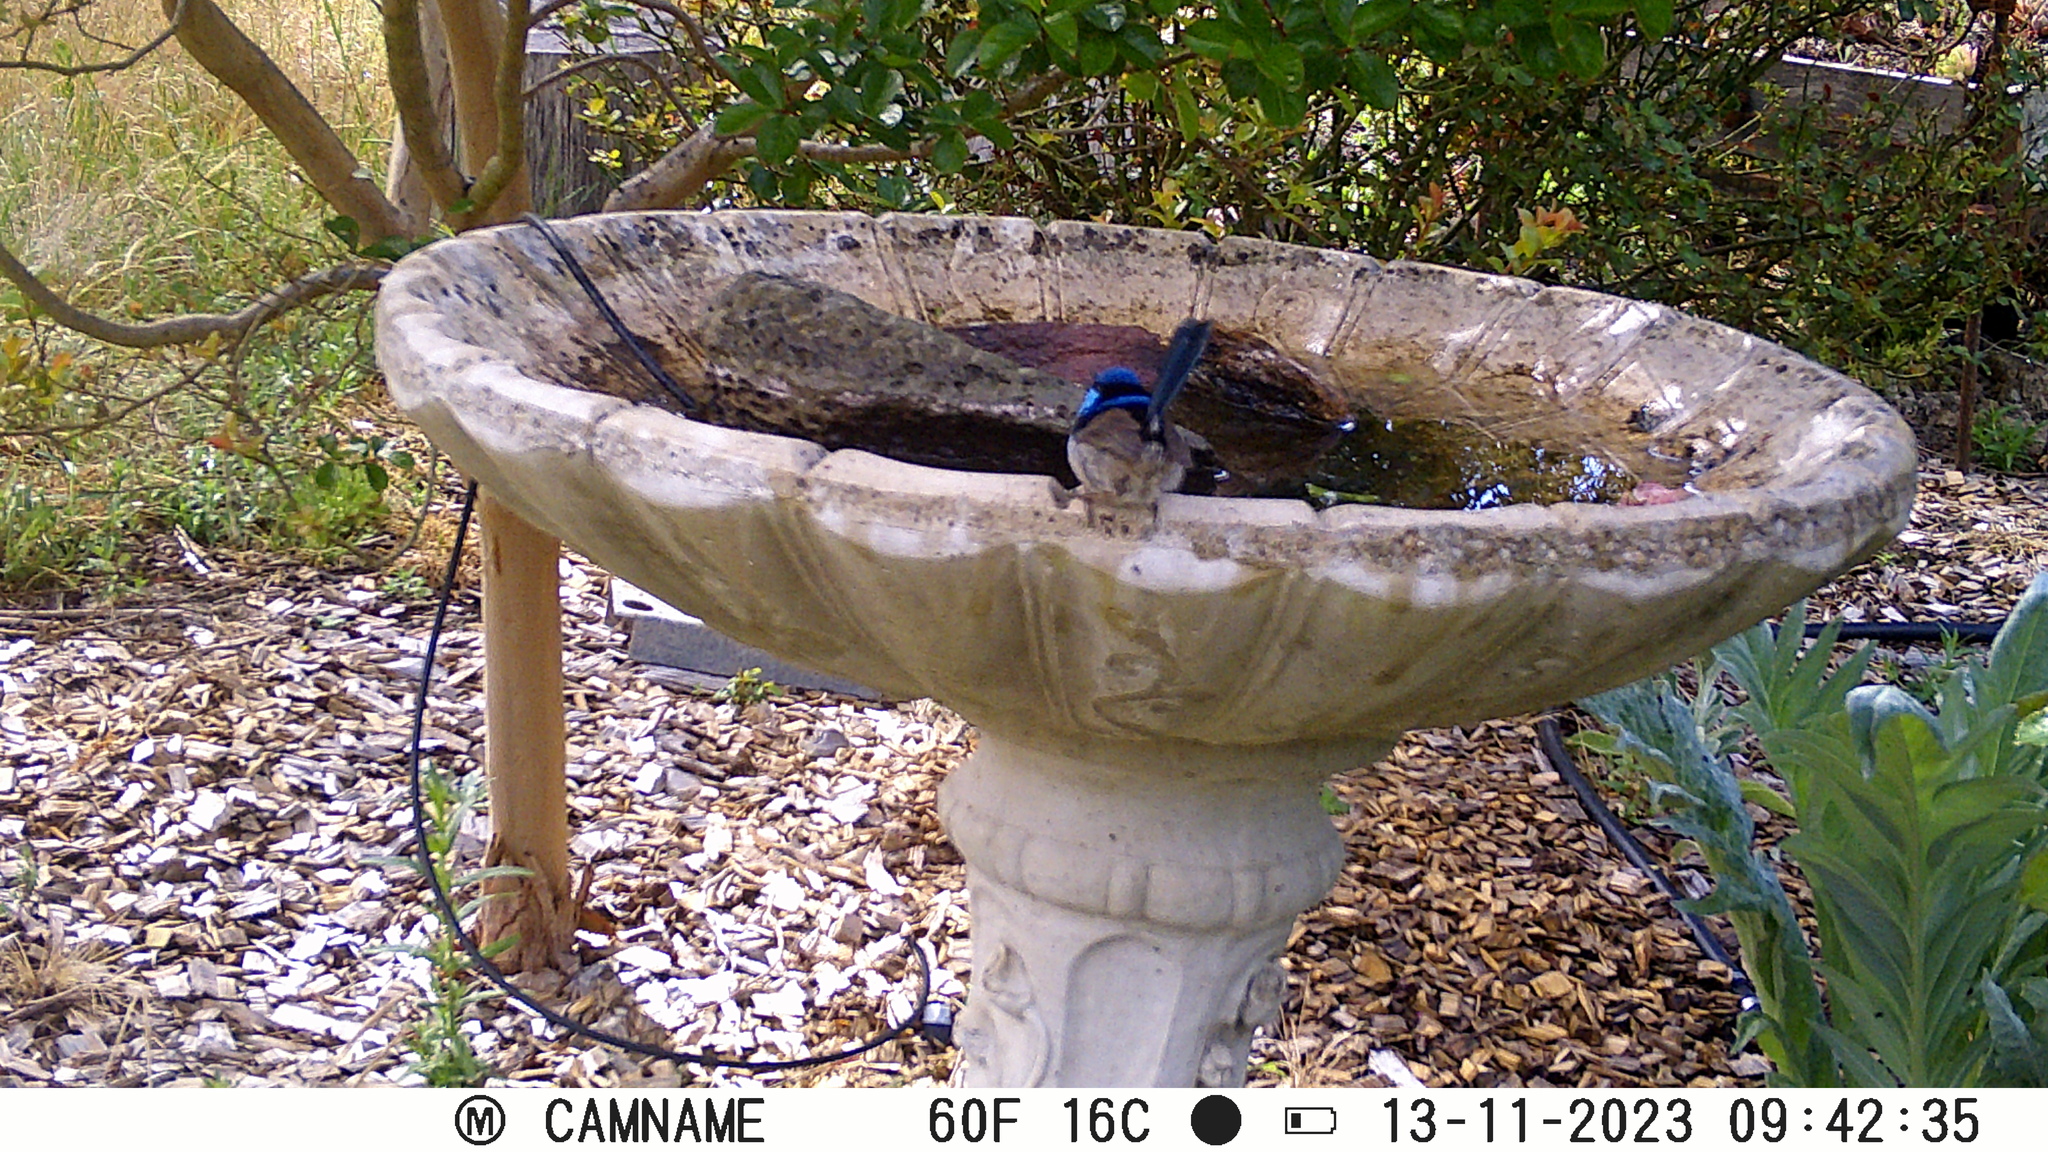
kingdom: Animalia
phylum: Chordata
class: Aves
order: Passeriformes
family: Maluridae
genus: Malurus
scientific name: Malurus cyaneus
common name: Superb fairywren
